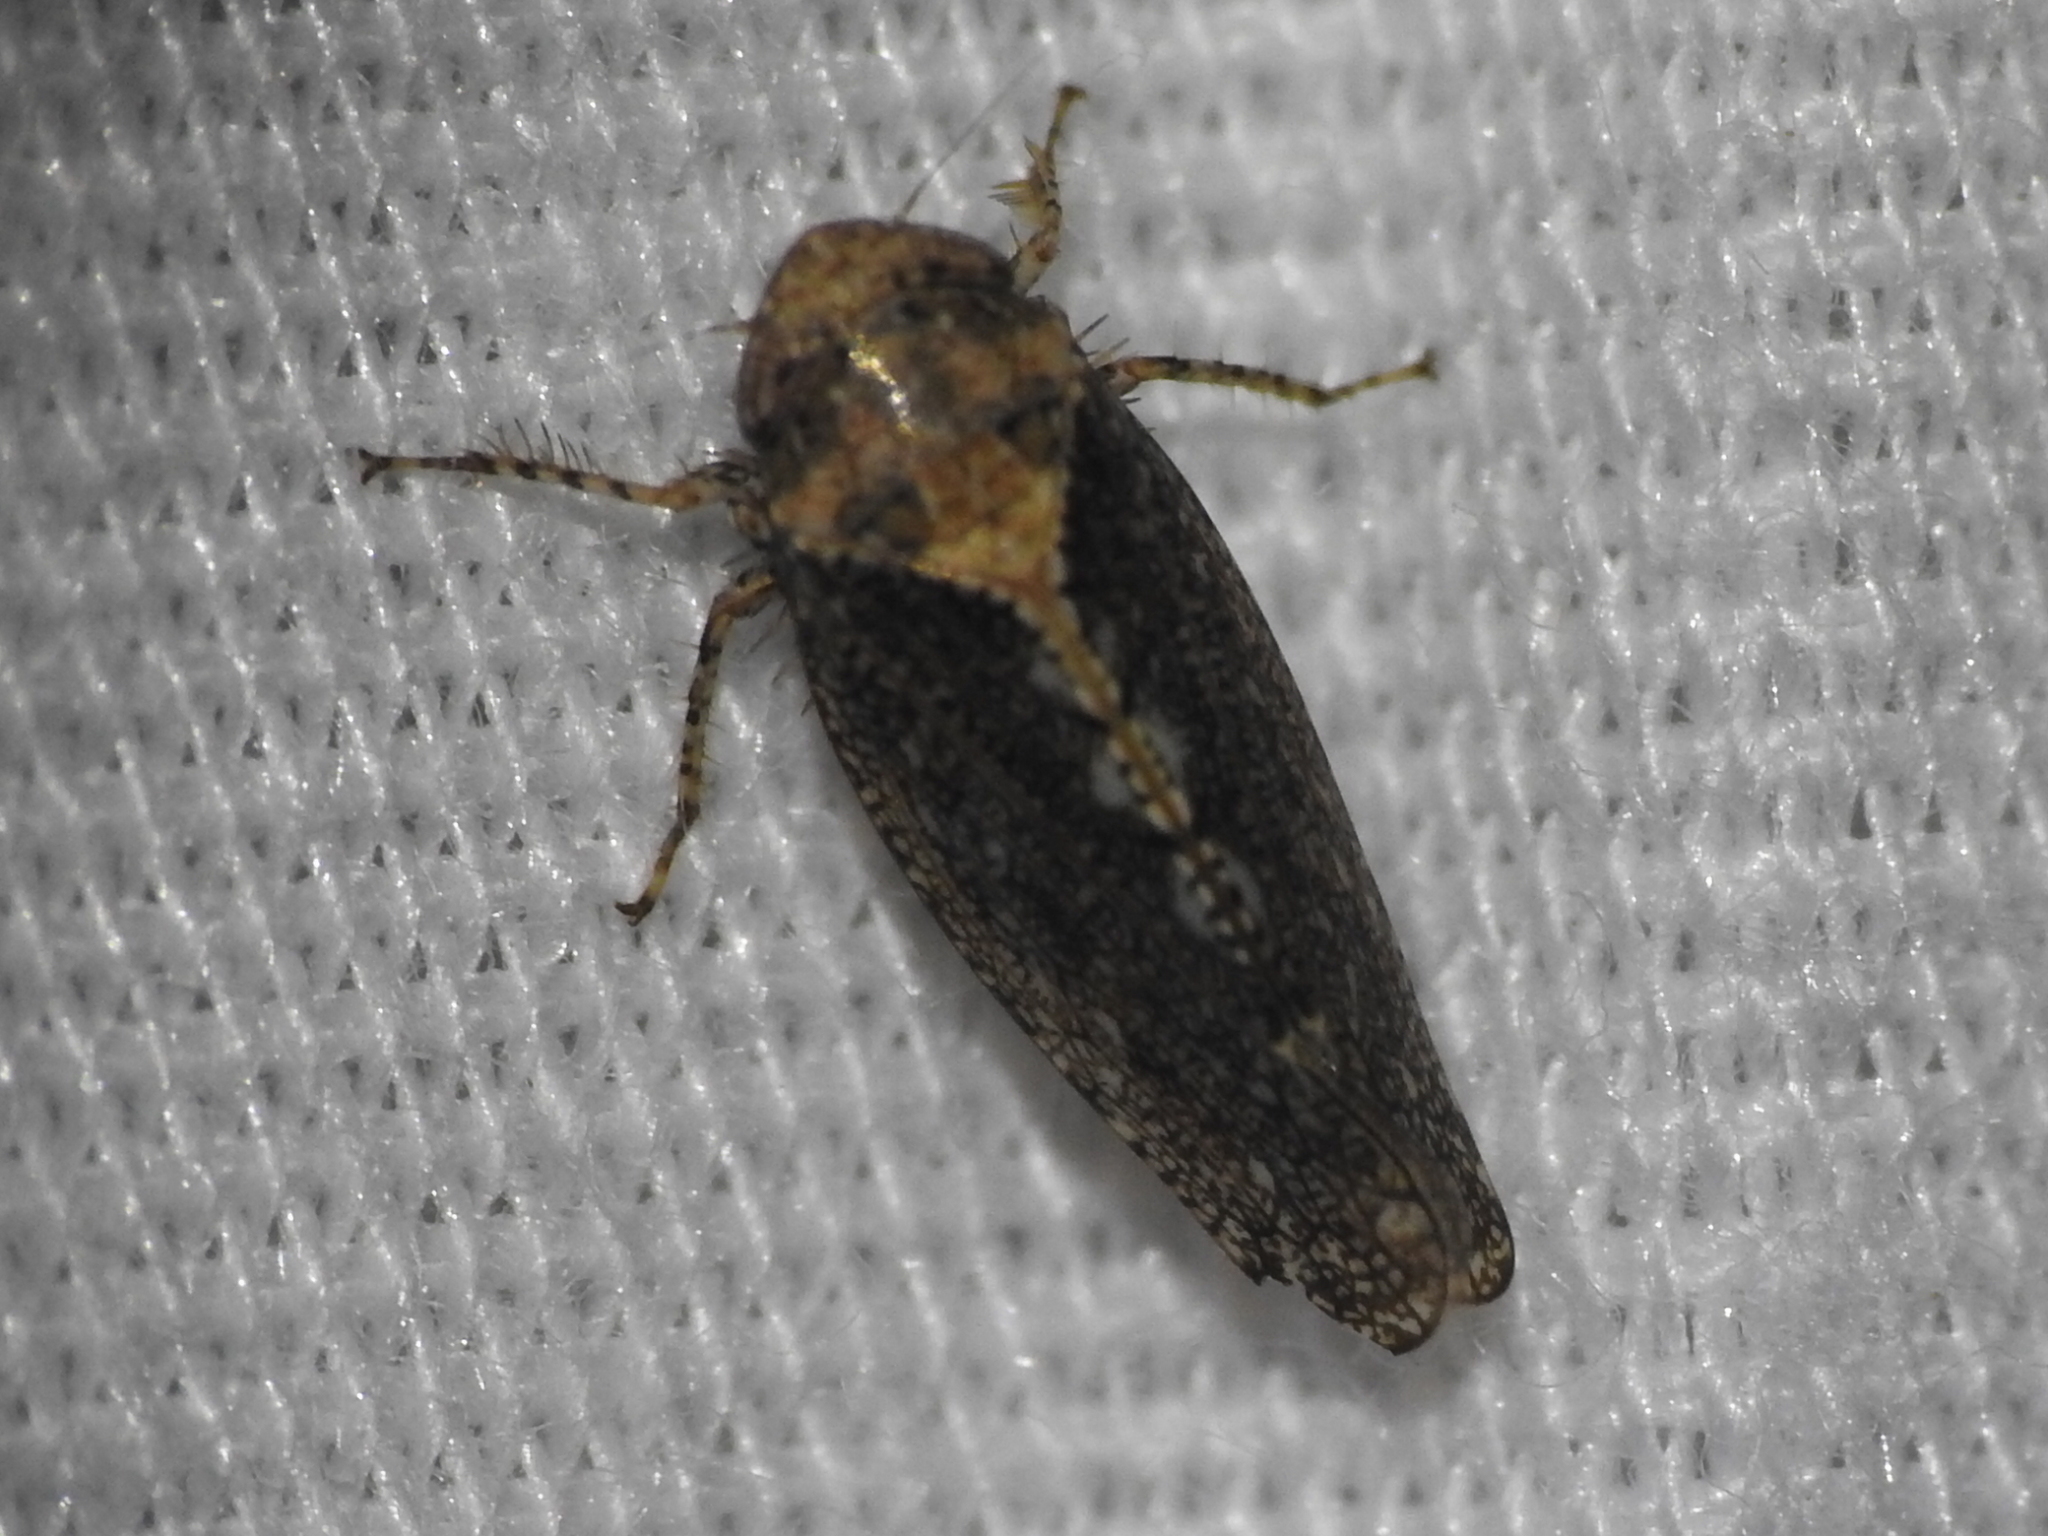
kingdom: Animalia
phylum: Arthropoda
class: Insecta
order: Hemiptera
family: Cicadellidae
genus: Excultanus
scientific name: Excultanus excultus
